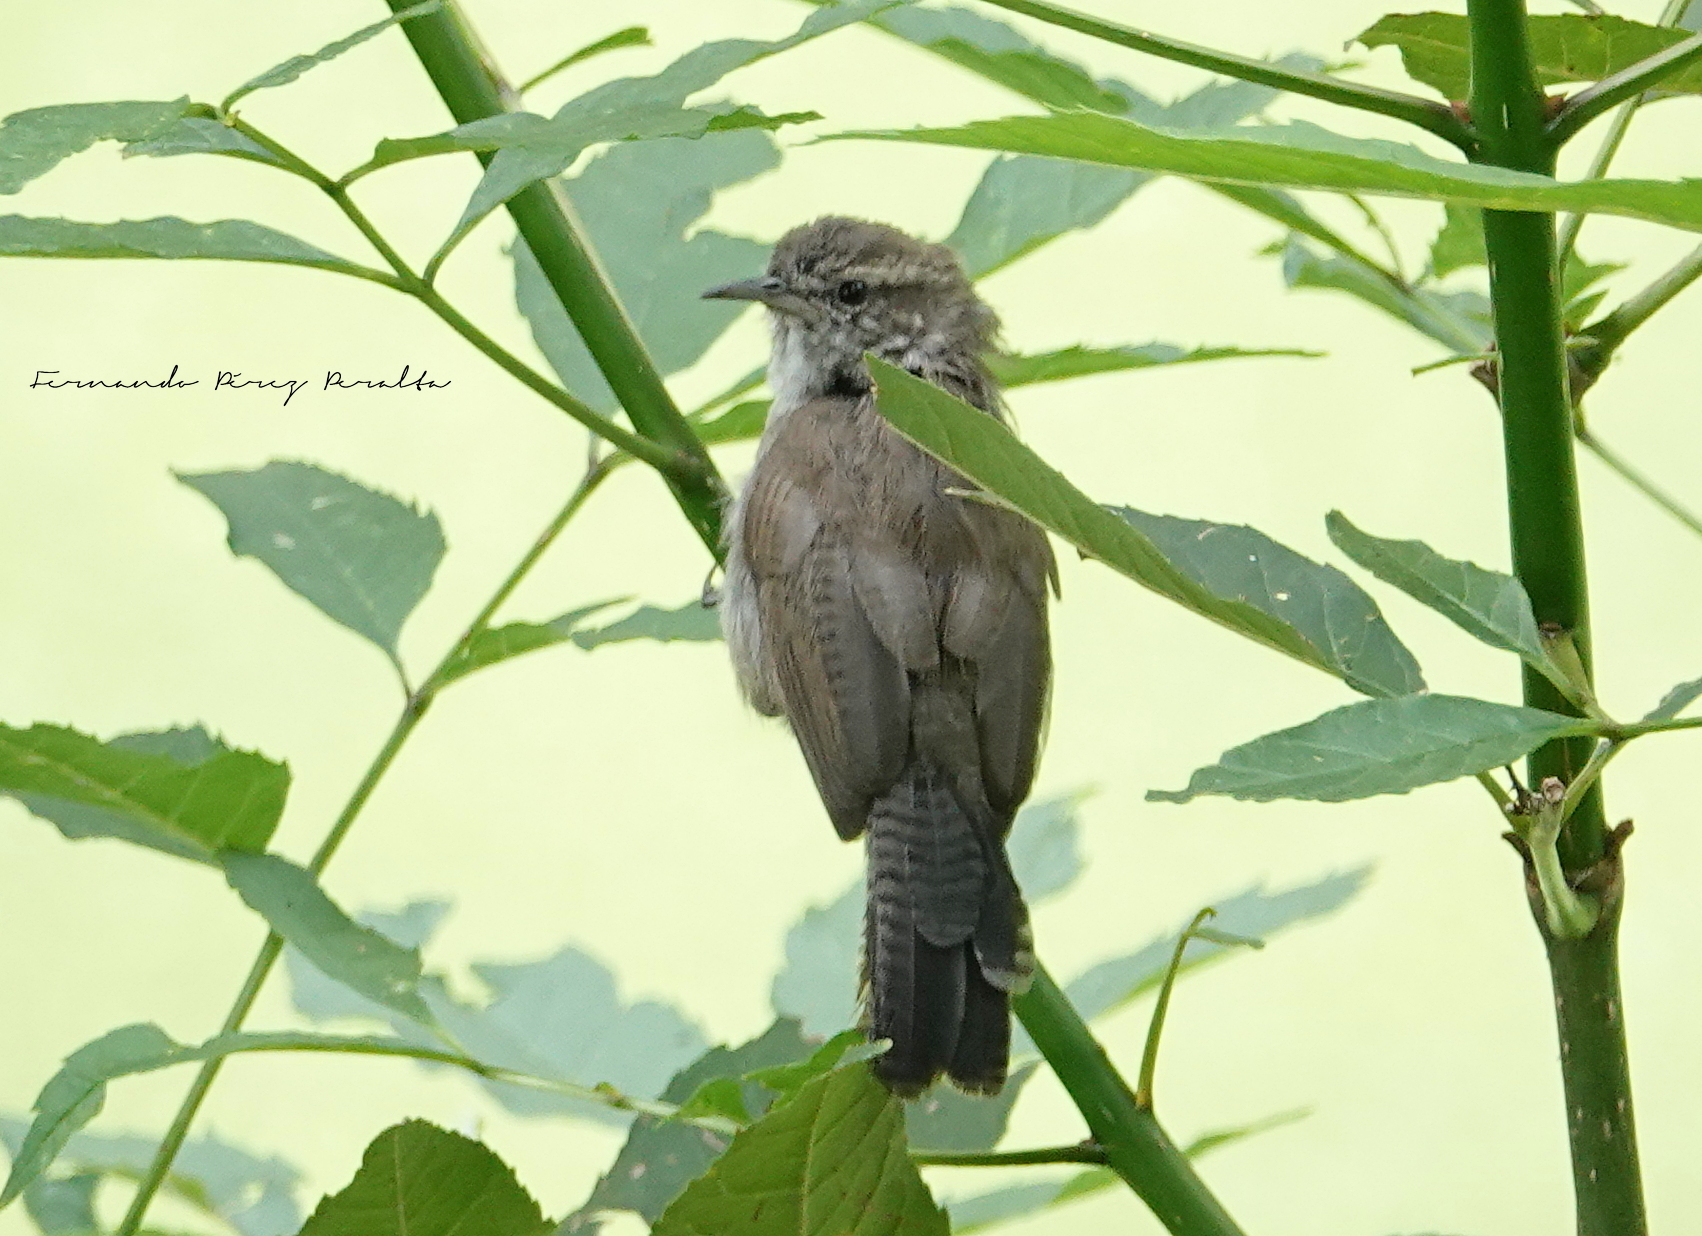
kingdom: Animalia
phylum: Chordata
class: Aves
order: Passeriformes
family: Troglodytidae
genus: Thryomanes
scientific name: Thryomanes bewickii
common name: Bewick's wren
